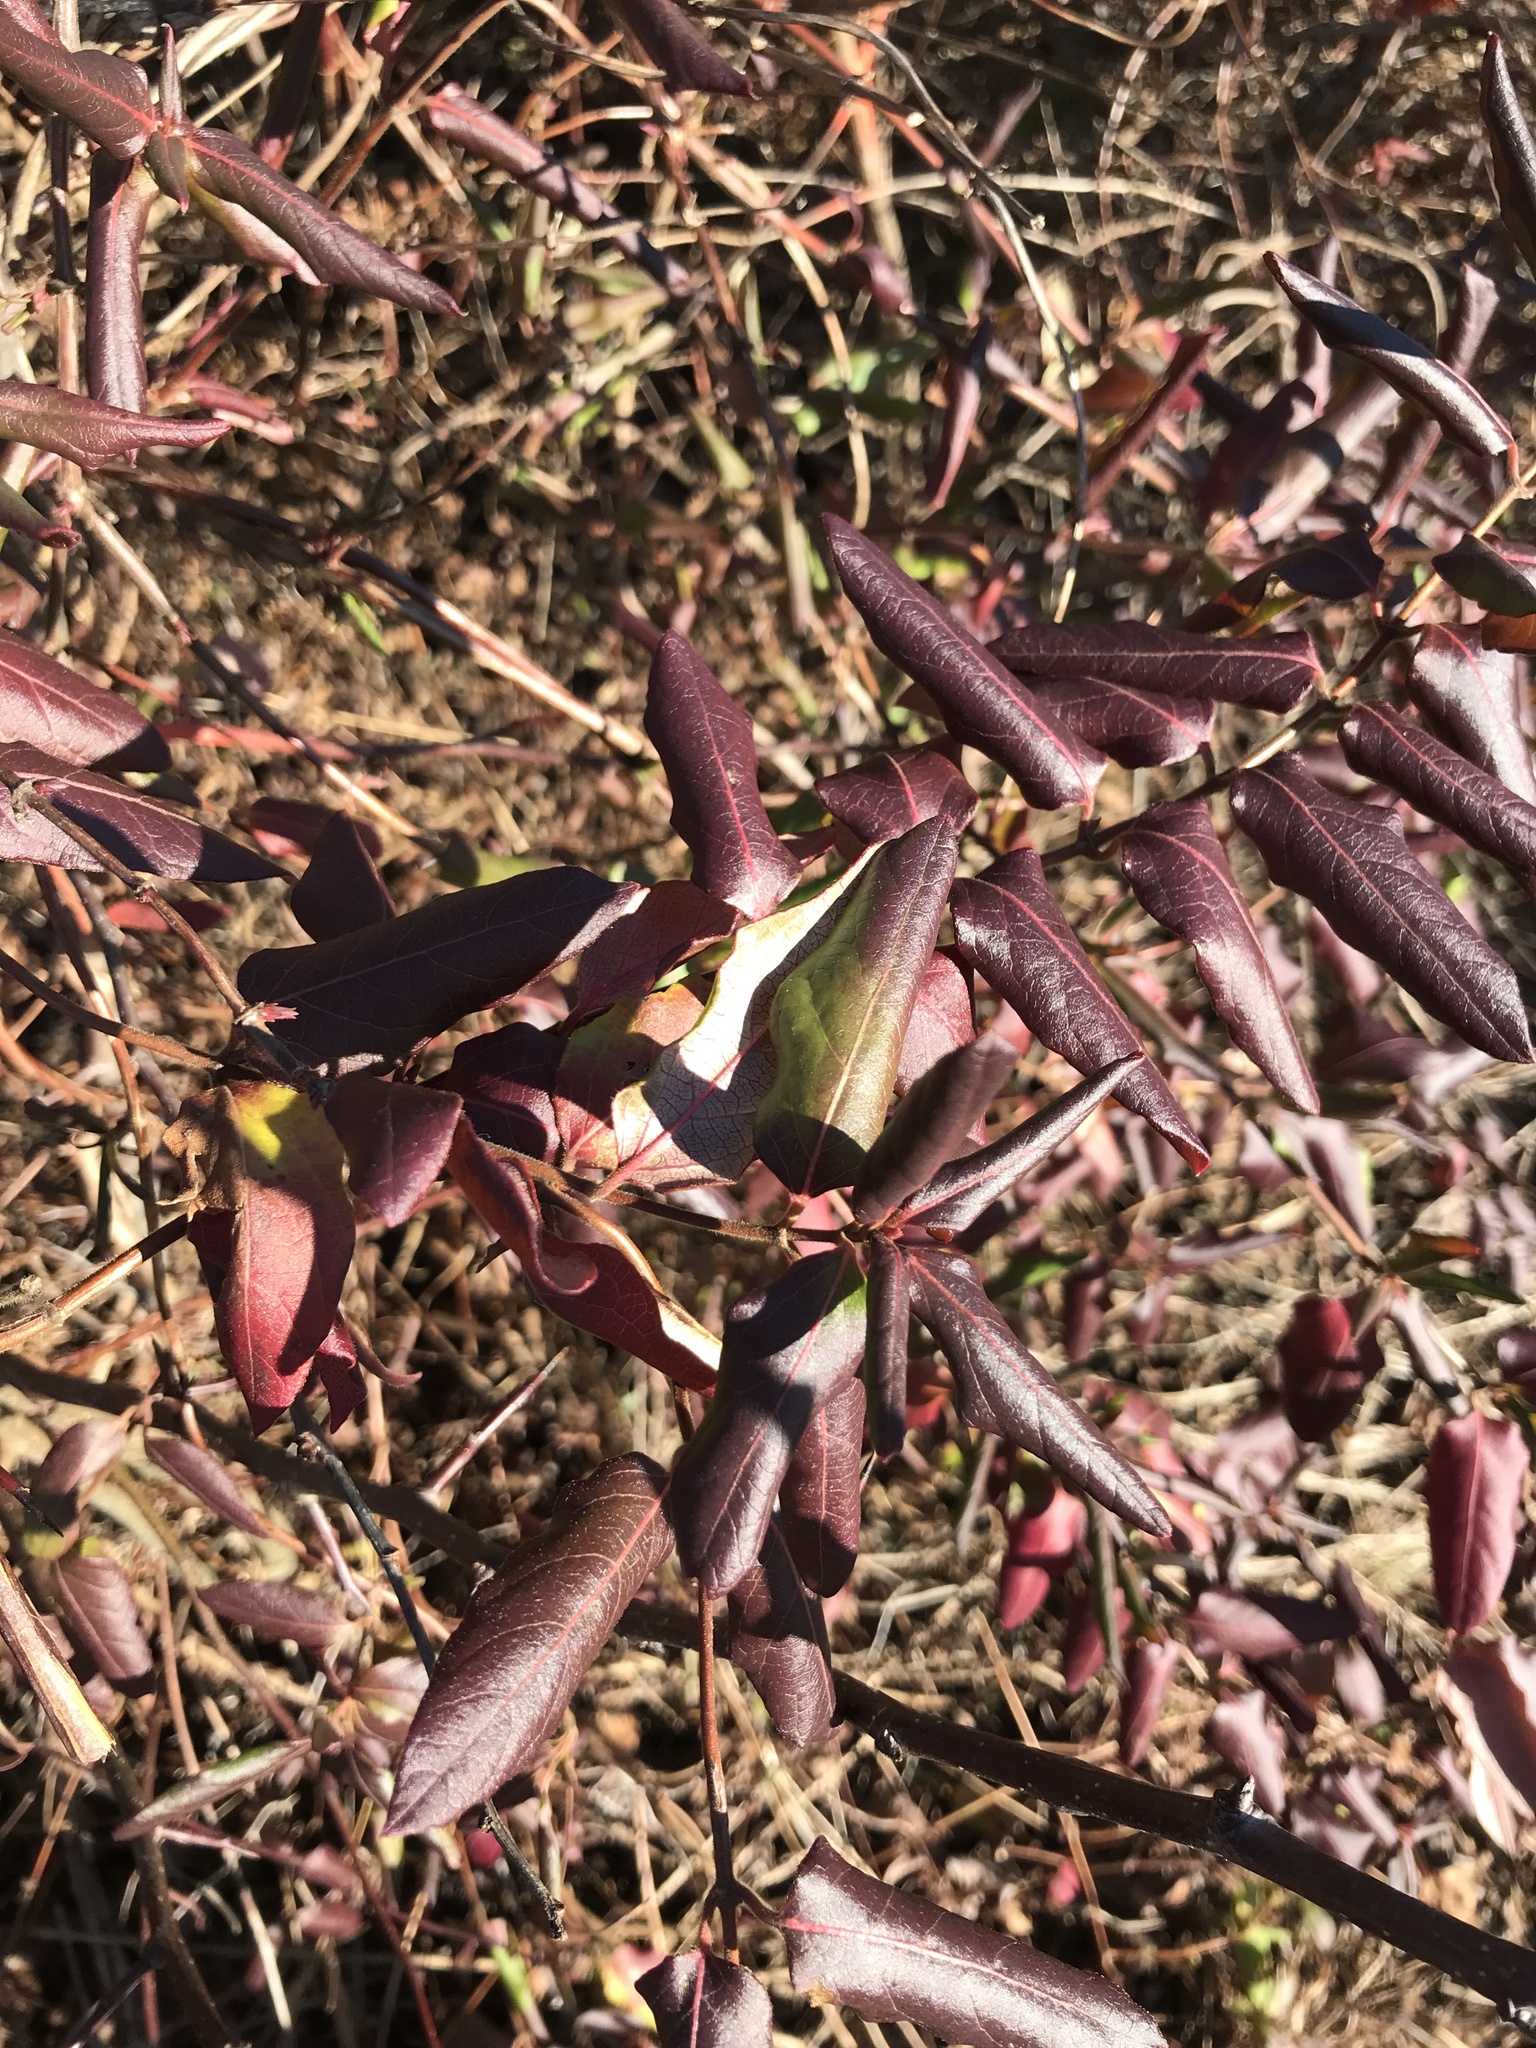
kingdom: Plantae
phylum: Tracheophyta
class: Magnoliopsida
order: Dipsacales
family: Caprifoliaceae
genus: Lonicera
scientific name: Lonicera japonica
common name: Japanese honeysuckle
